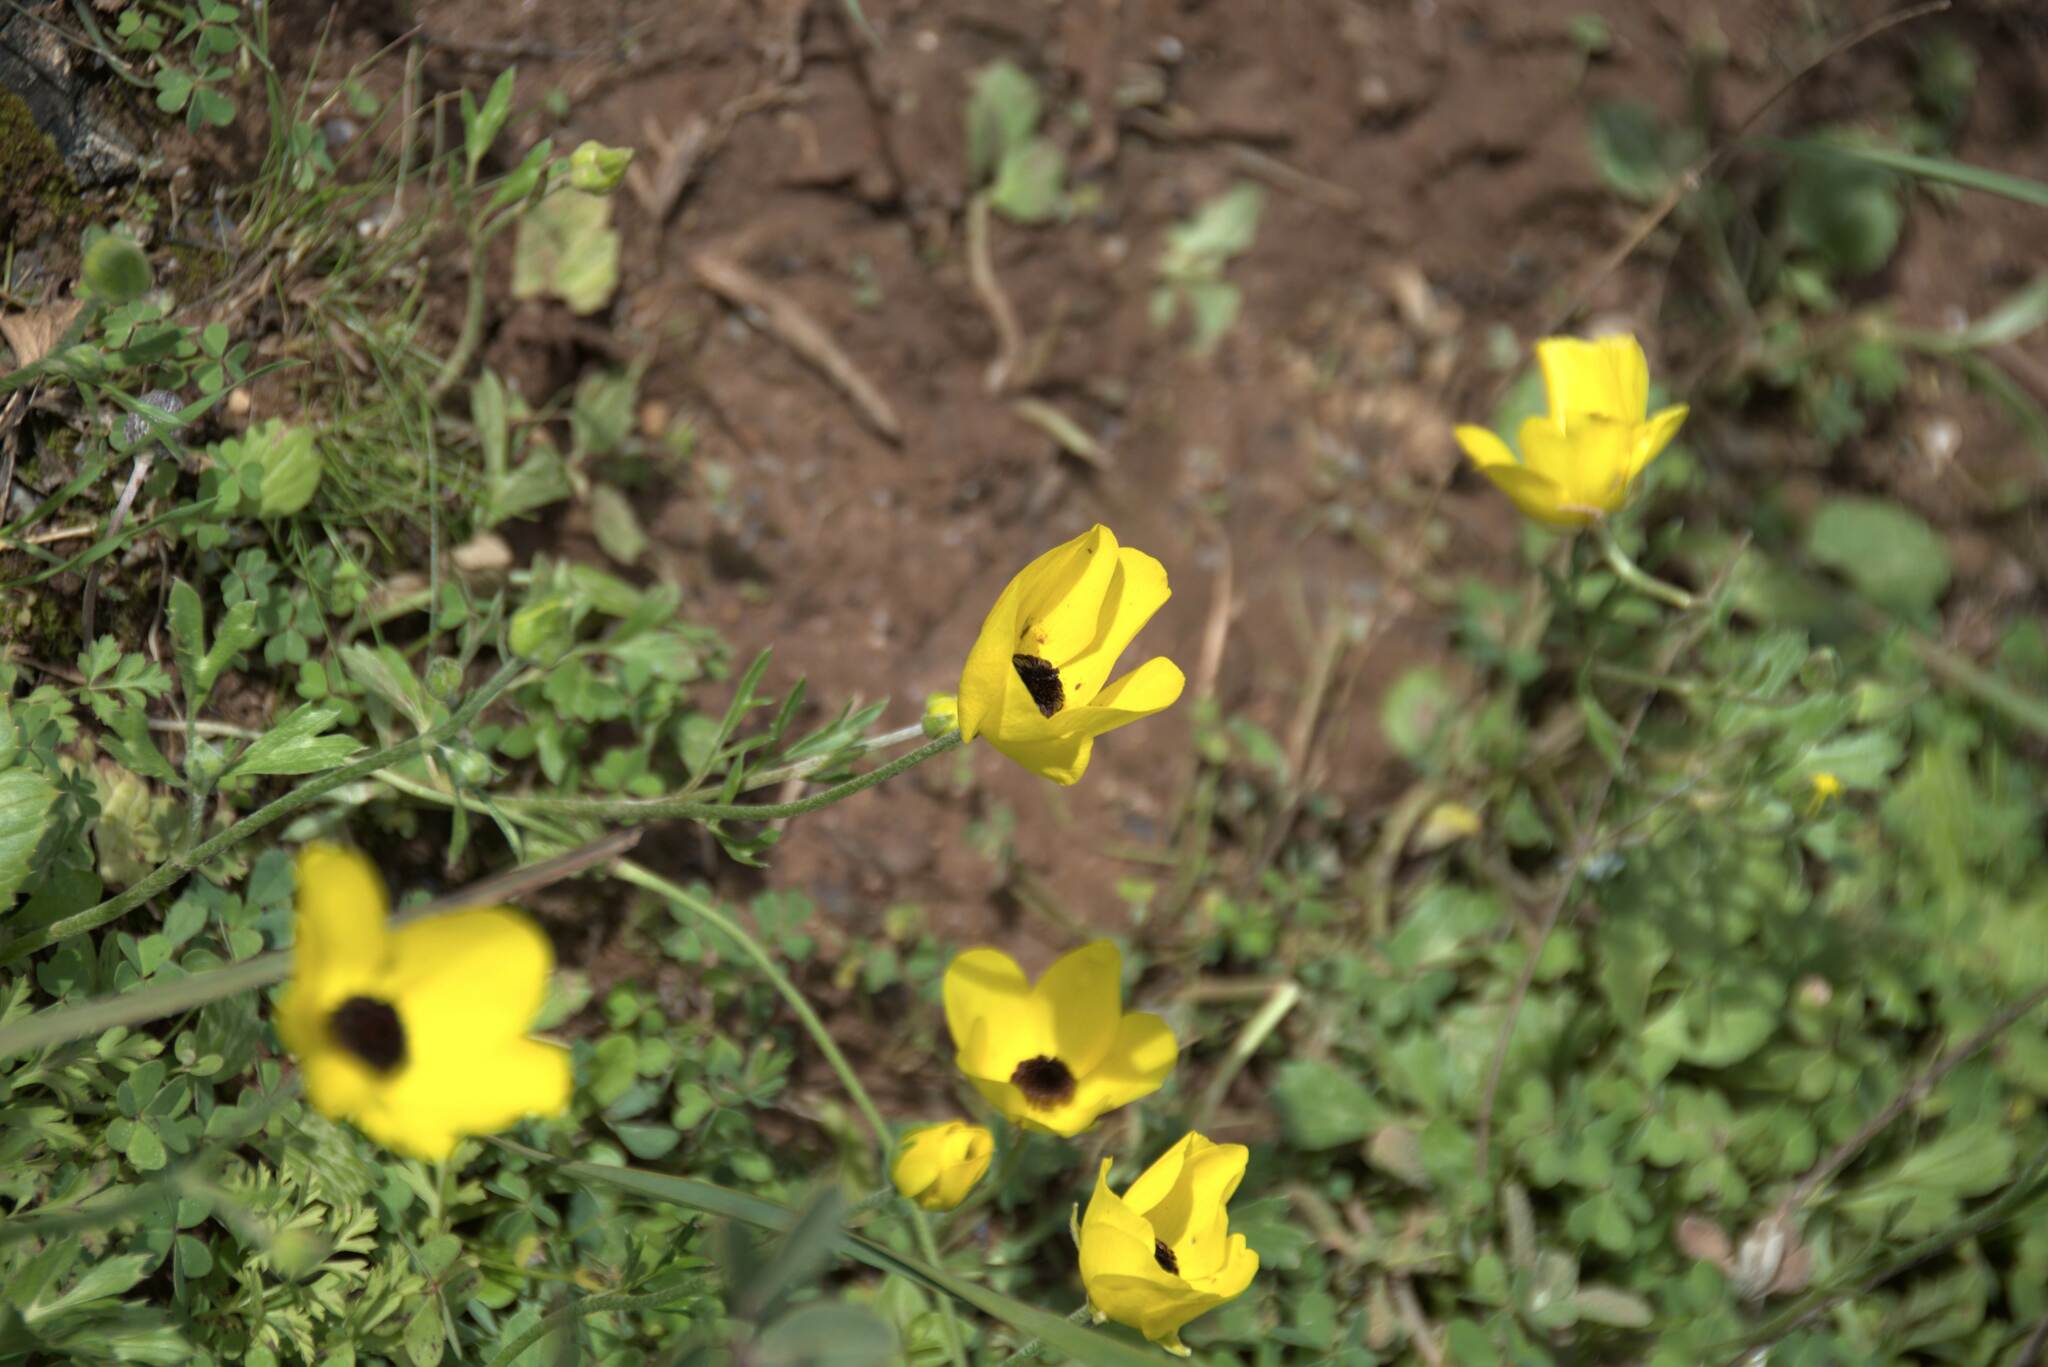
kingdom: Plantae
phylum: Tracheophyta
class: Magnoliopsida
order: Ranunculales
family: Ranunculaceae
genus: Ranunculus
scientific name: Ranunculus asiaticus
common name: Persian buttercup
